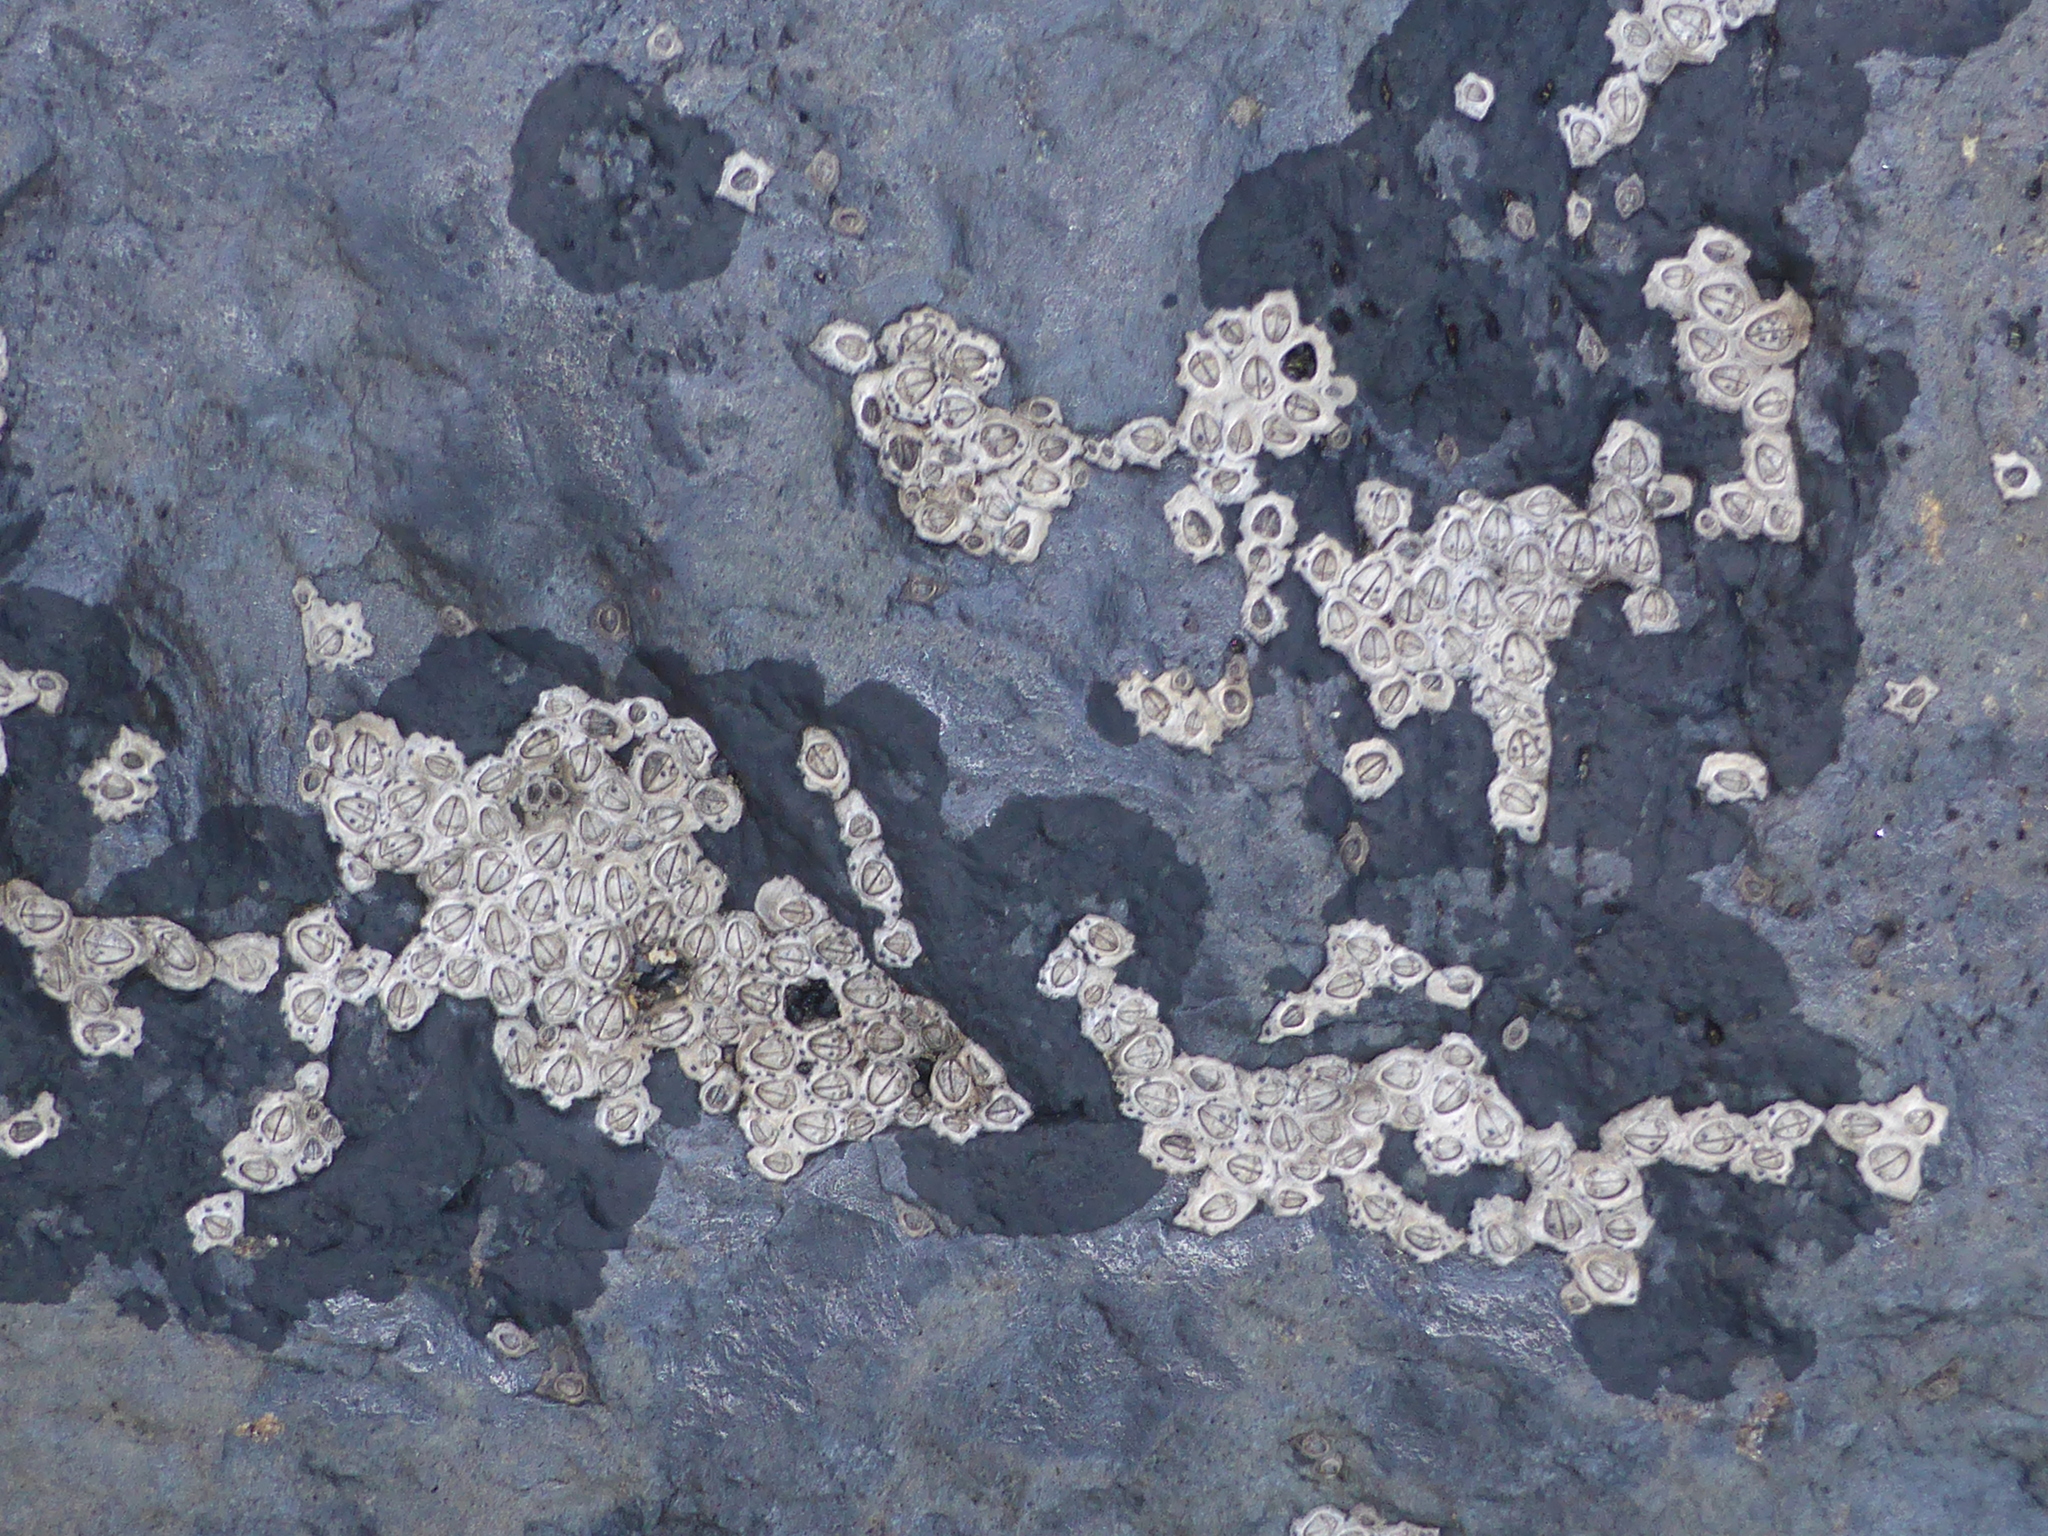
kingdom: Animalia
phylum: Arthropoda
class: Maxillopoda
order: Sessilia
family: Chthamalidae
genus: Chamaesipho
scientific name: Chamaesipho columna
